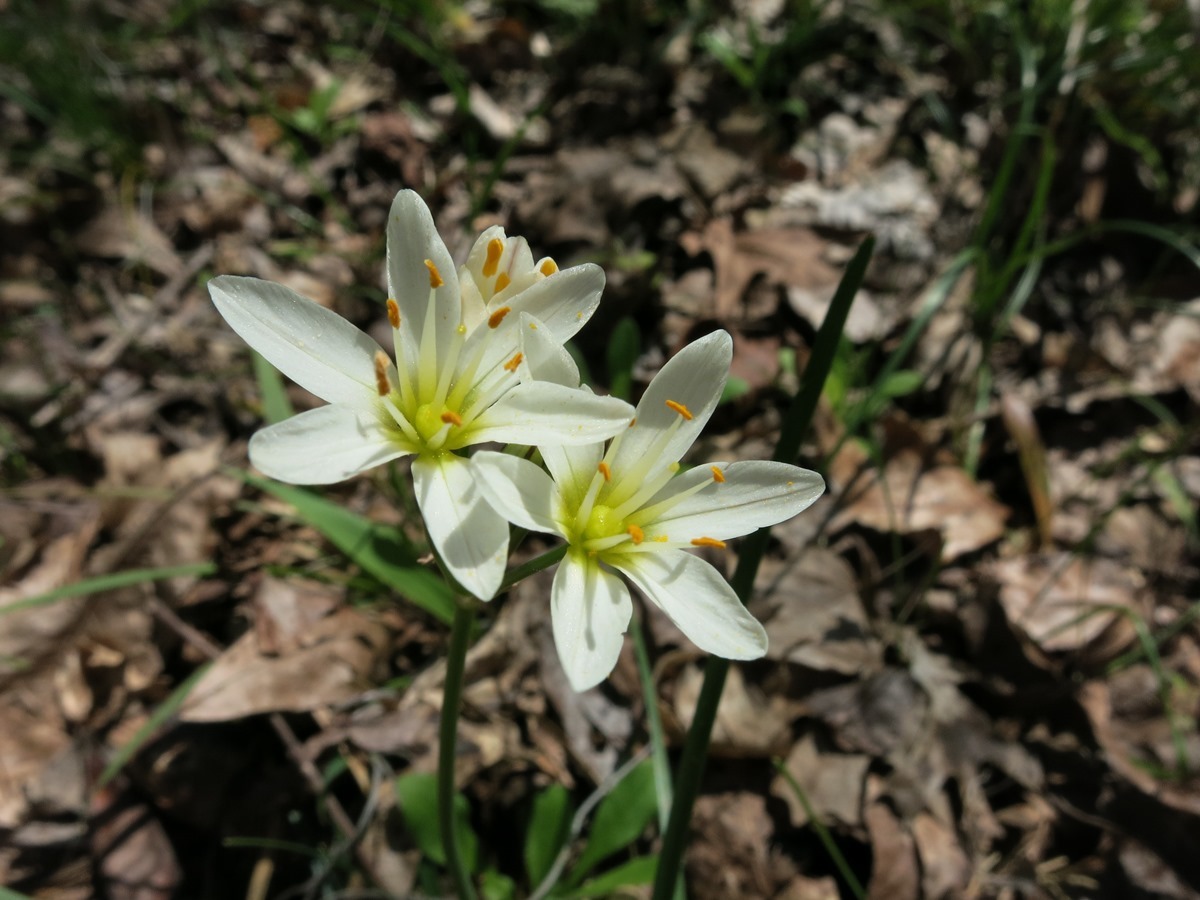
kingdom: Plantae
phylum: Tracheophyta
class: Liliopsida
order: Asparagales
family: Amaryllidaceae
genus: Nothoscordum
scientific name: Nothoscordum bivalve
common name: Crow-poison
